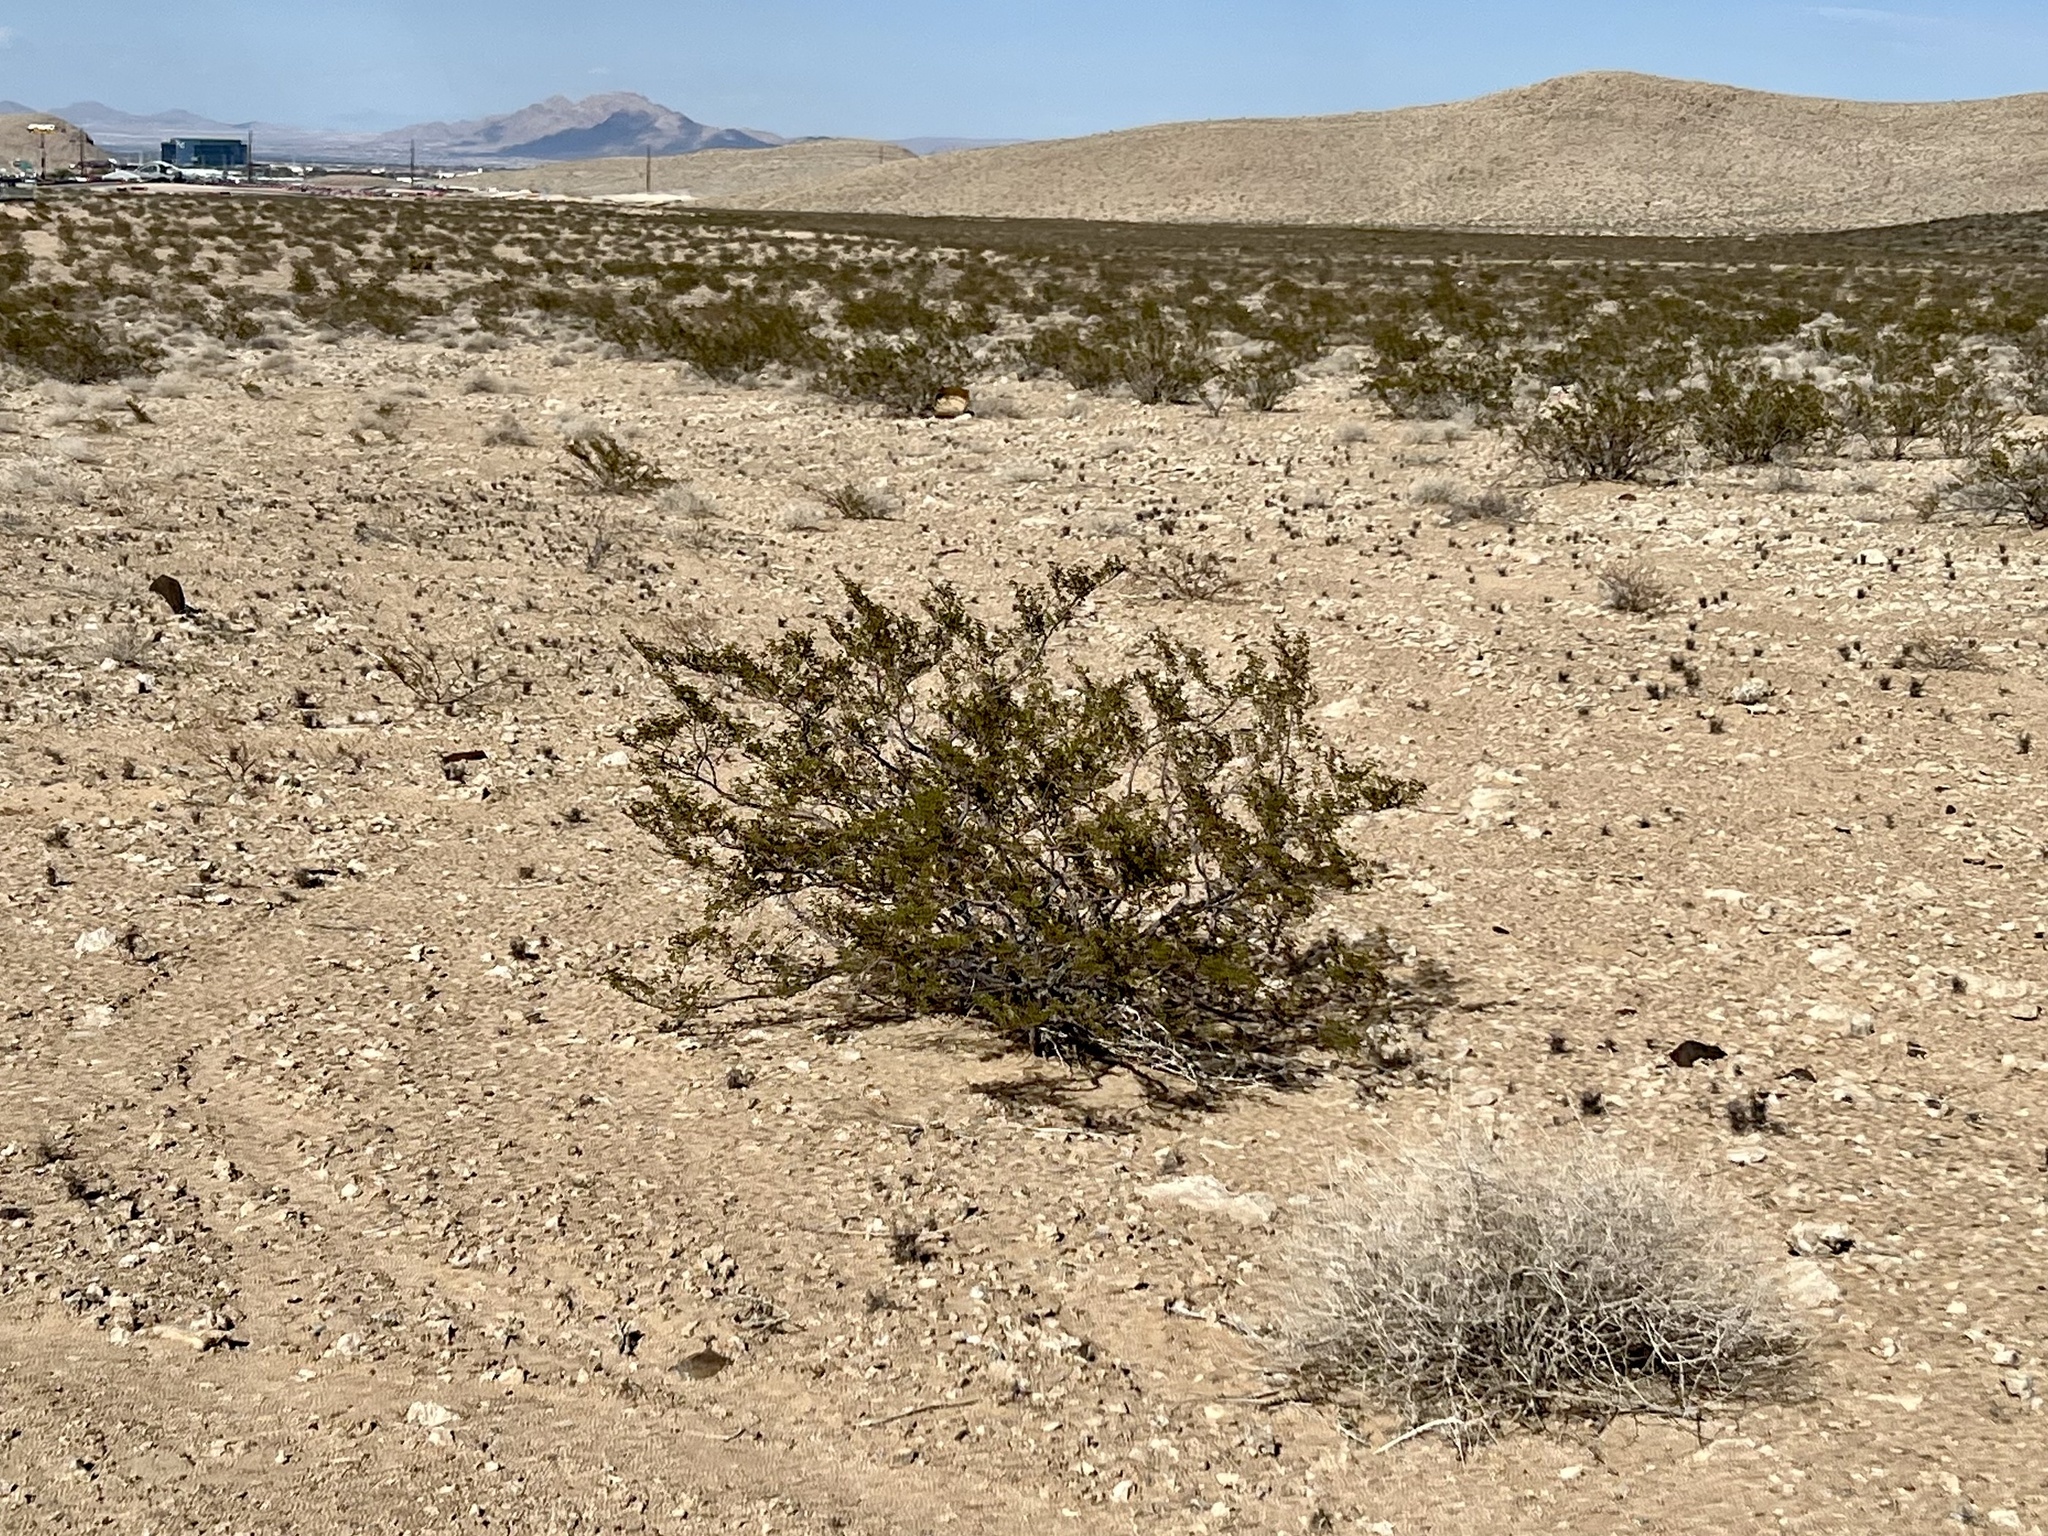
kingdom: Plantae
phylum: Tracheophyta
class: Magnoliopsida
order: Zygophyllales
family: Zygophyllaceae
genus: Larrea
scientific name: Larrea tridentata
